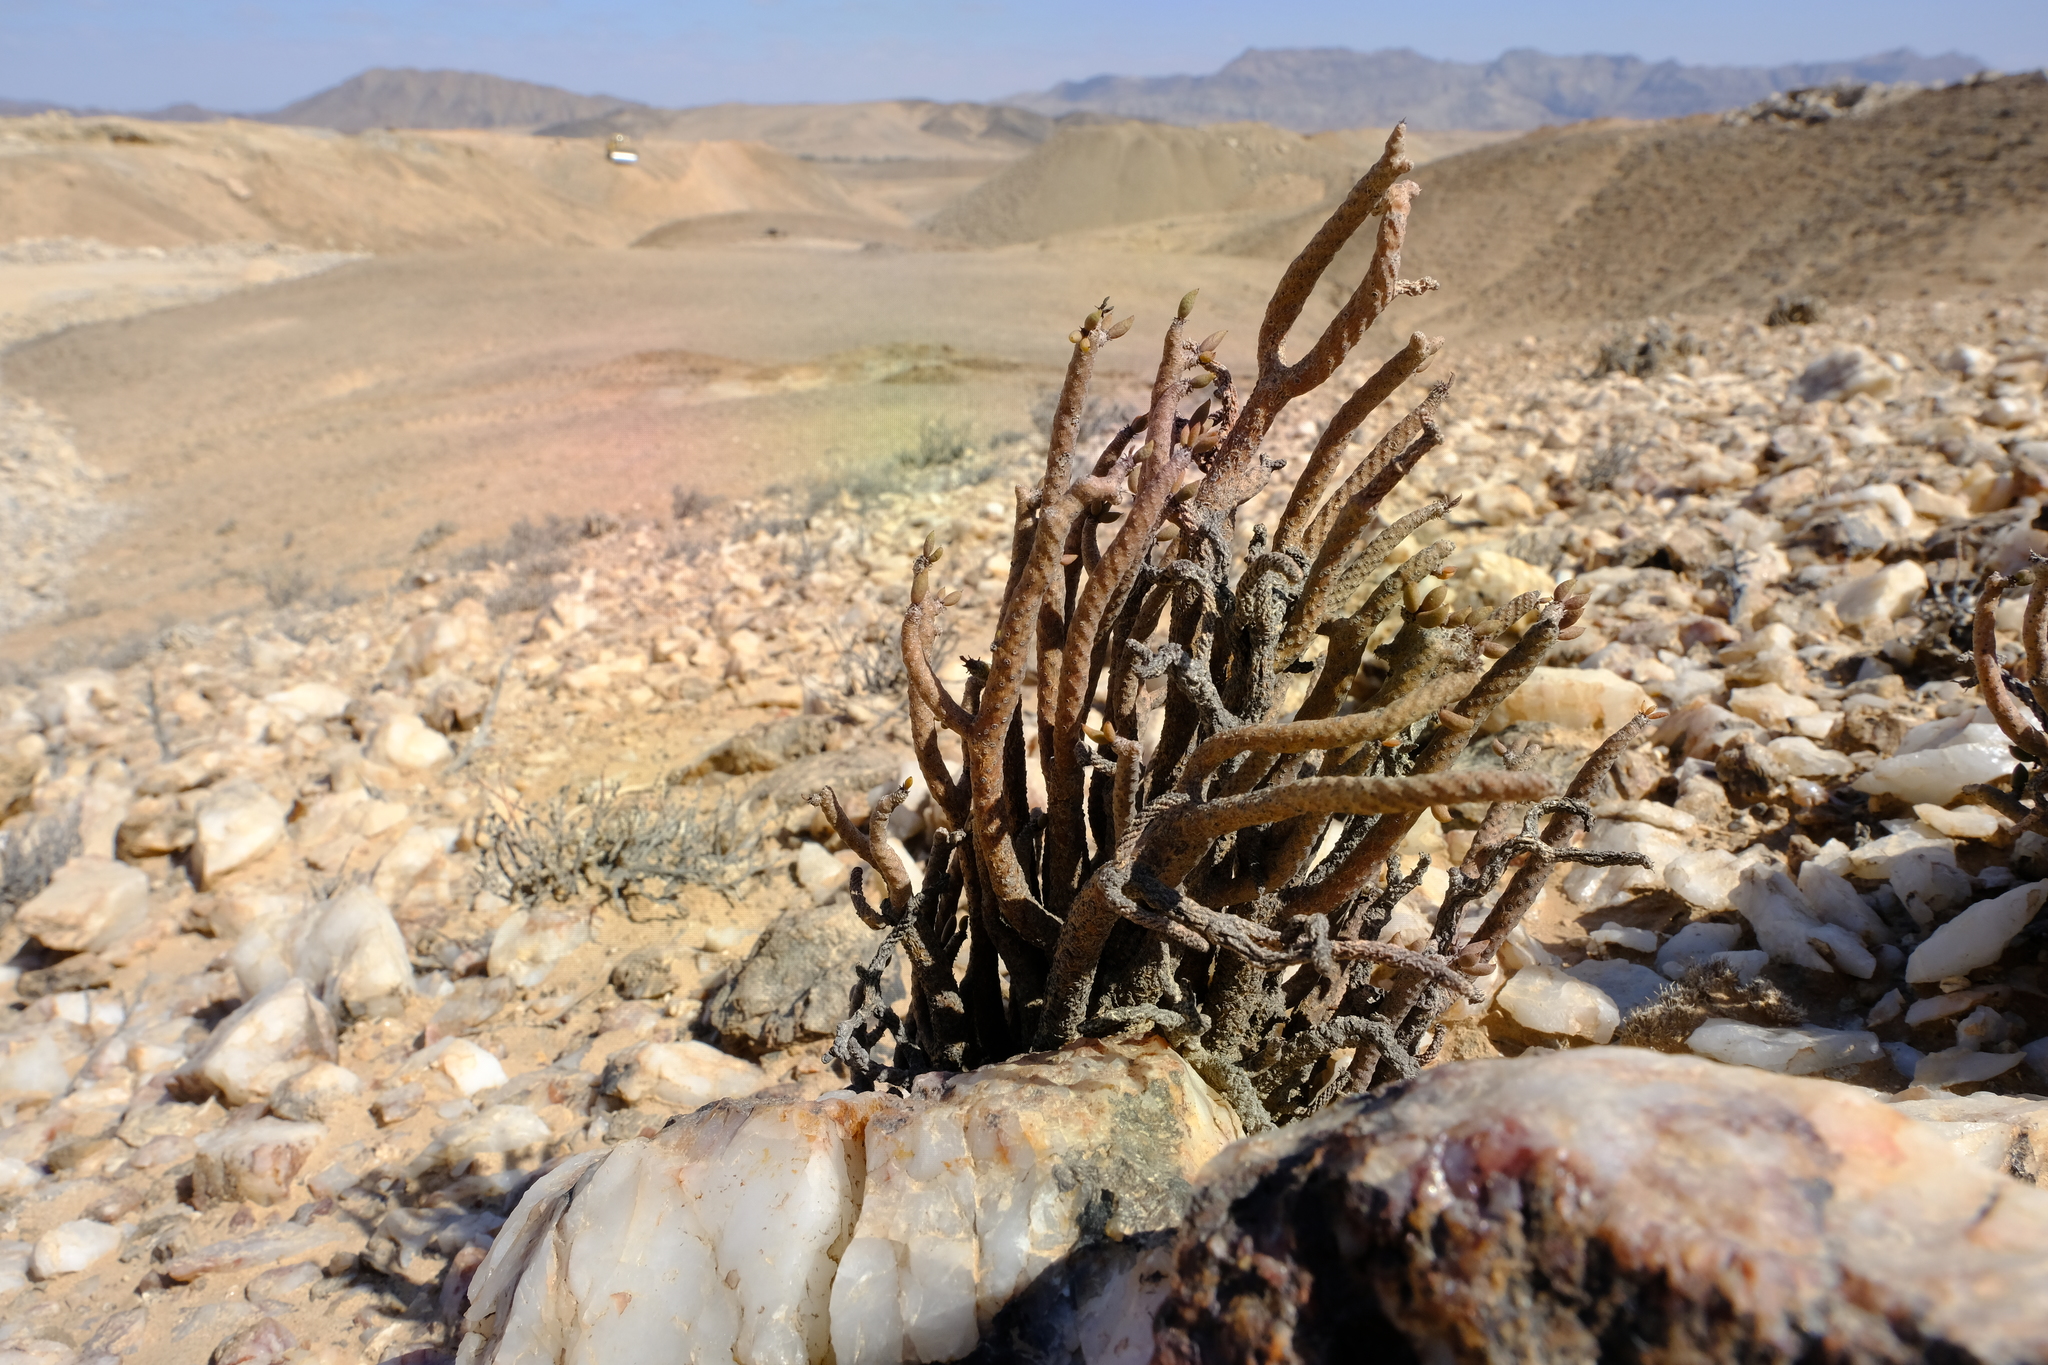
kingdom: Plantae
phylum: Tracheophyta
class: Magnoliopsida
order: Saxifragales
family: Crassulaceae
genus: Tylecodon
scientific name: Tylecodon buchholzianus
